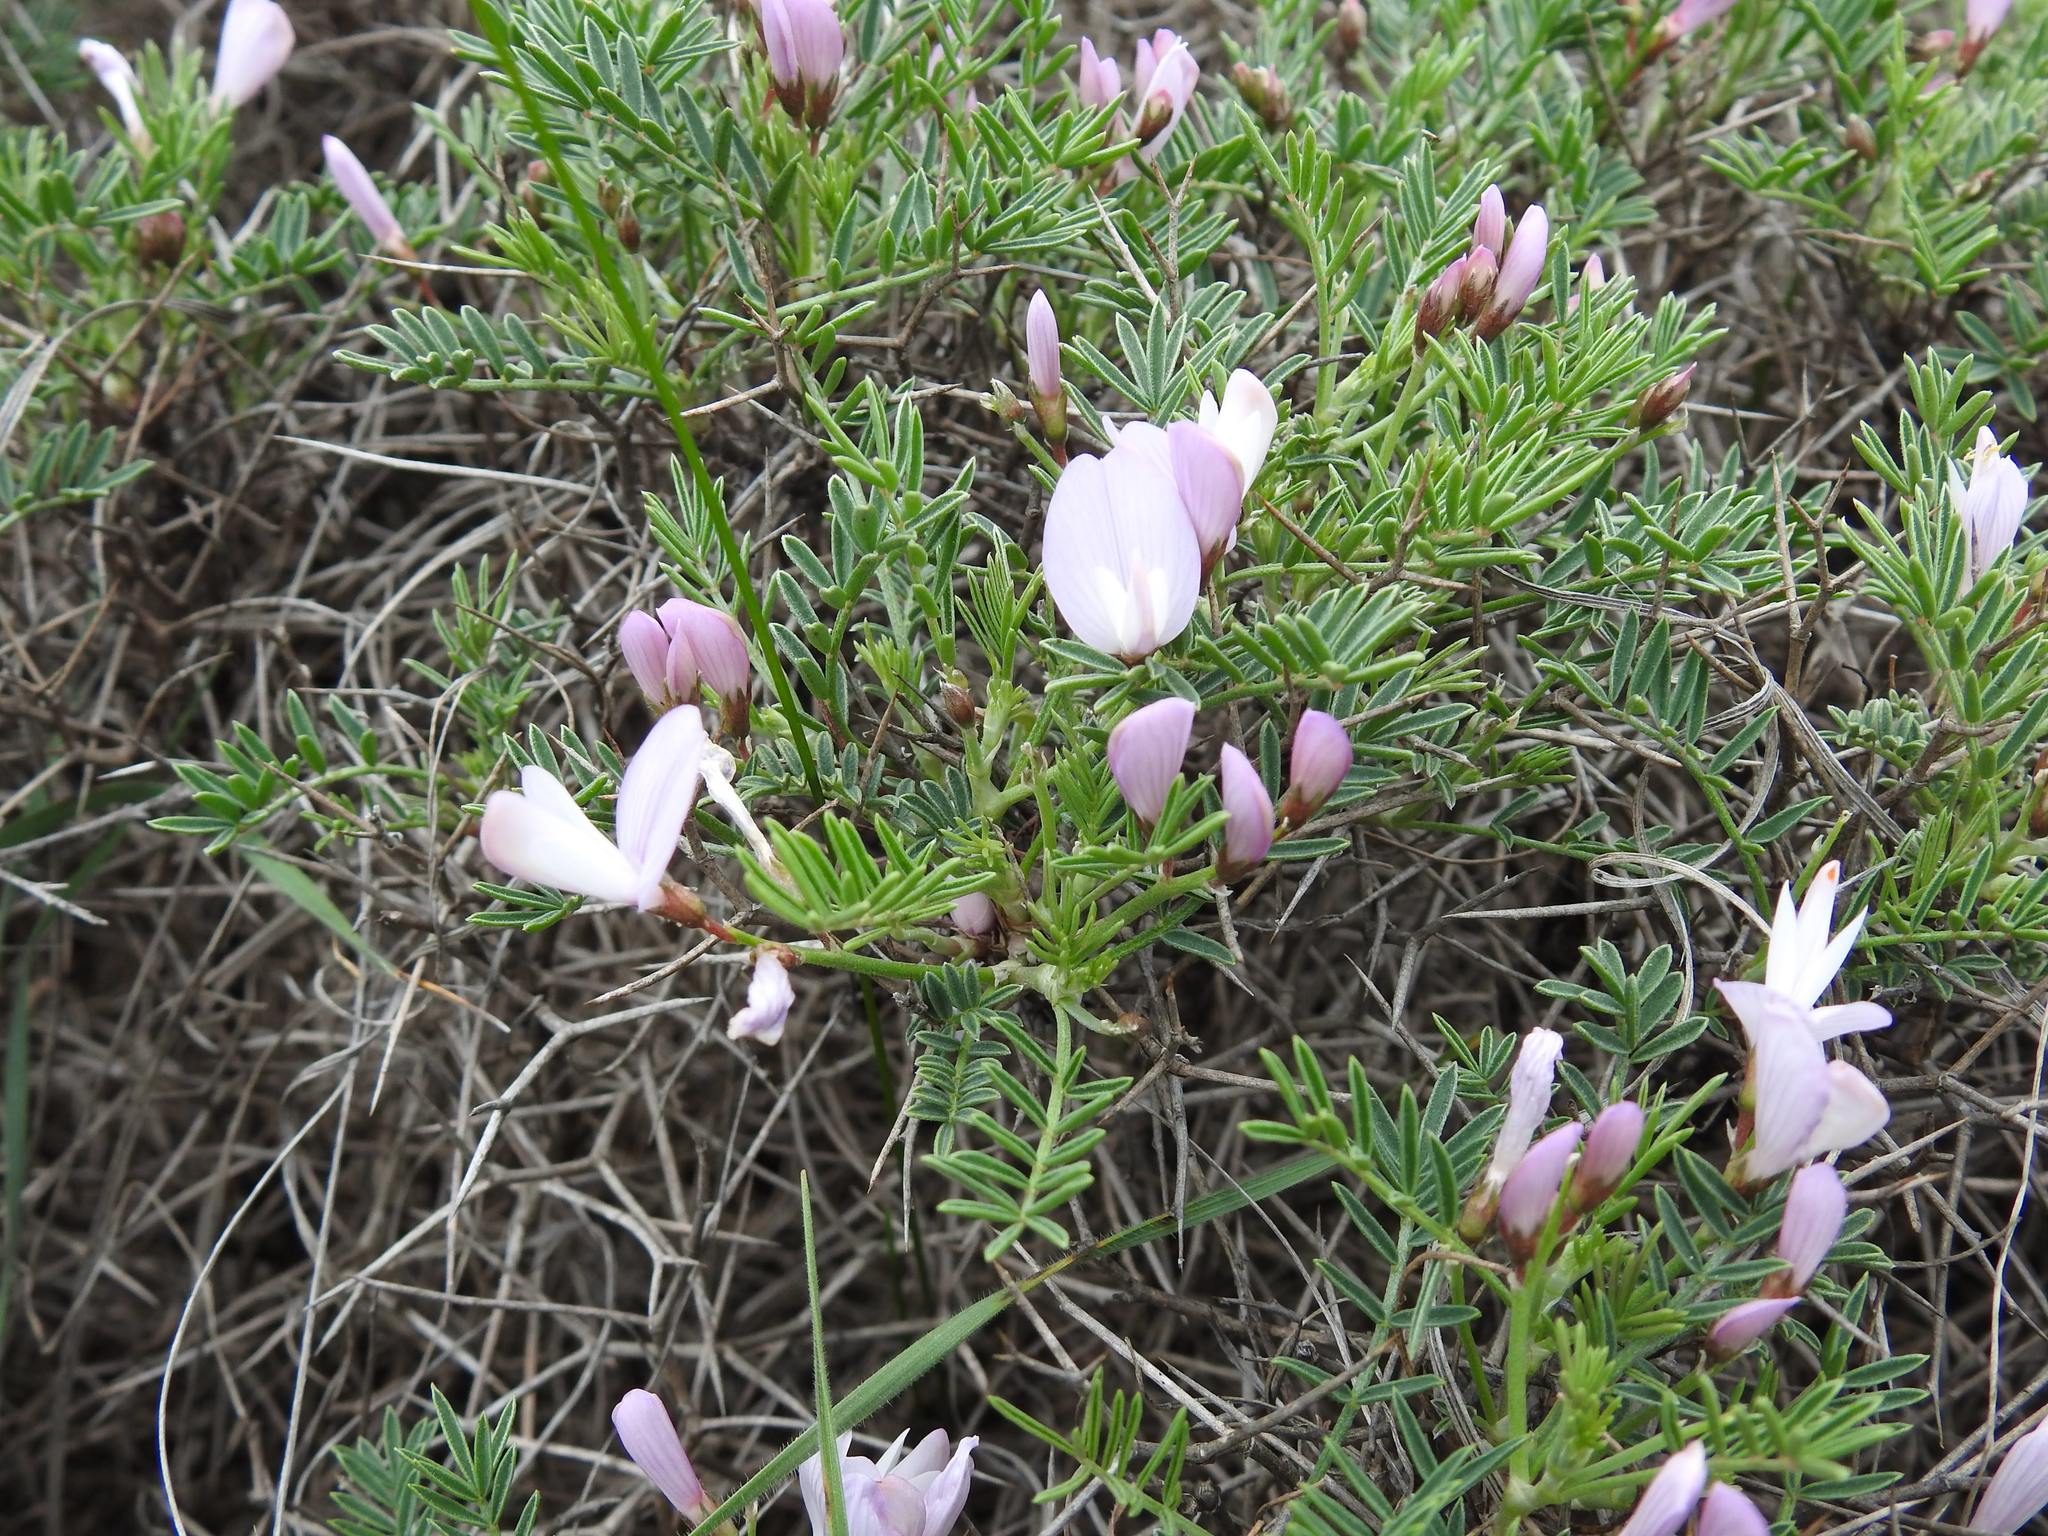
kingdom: Plantae
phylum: Tracheophyta
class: Magnoliopsida
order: Fabales
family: Fabaceae
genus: Onobrychis
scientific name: Onobrychis cornuta
